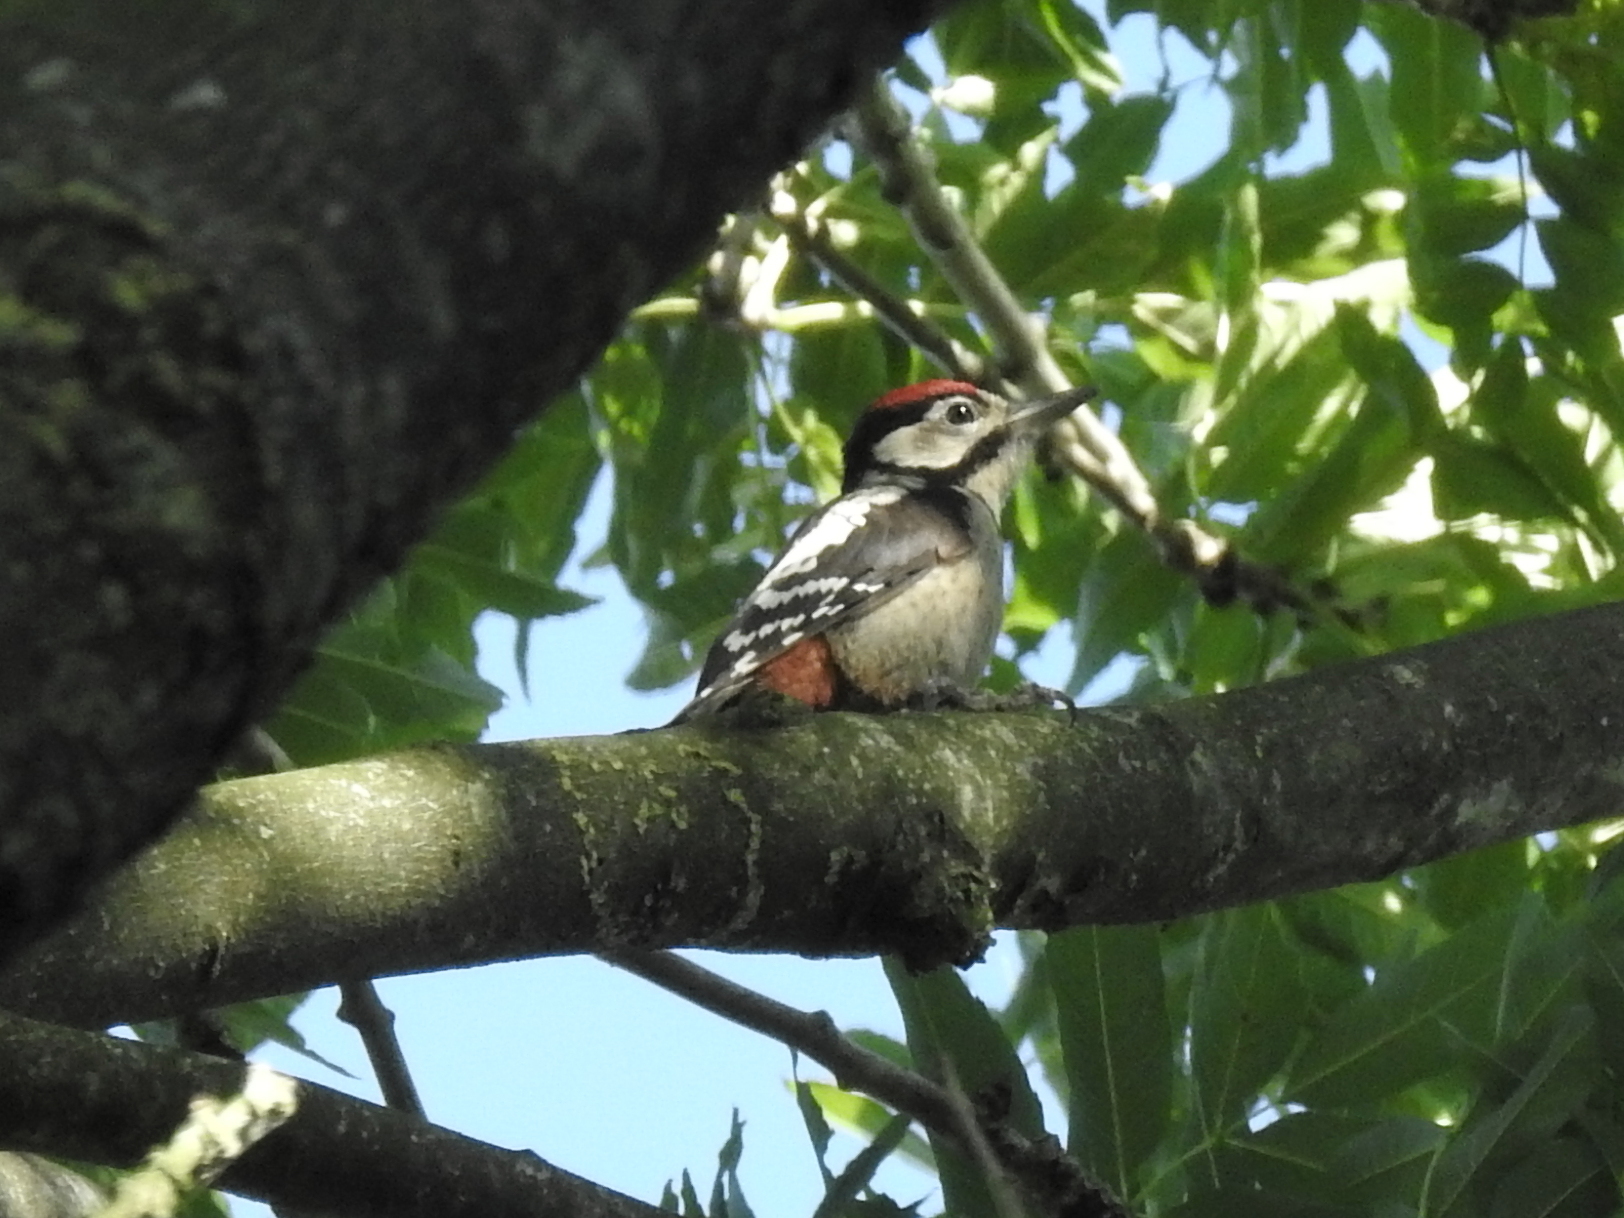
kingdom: Animalia
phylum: Chordata
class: Aves
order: Piciformes
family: Picidae
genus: Dendrocopos
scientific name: Dendrocopos major
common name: Great spotted woodpecker
